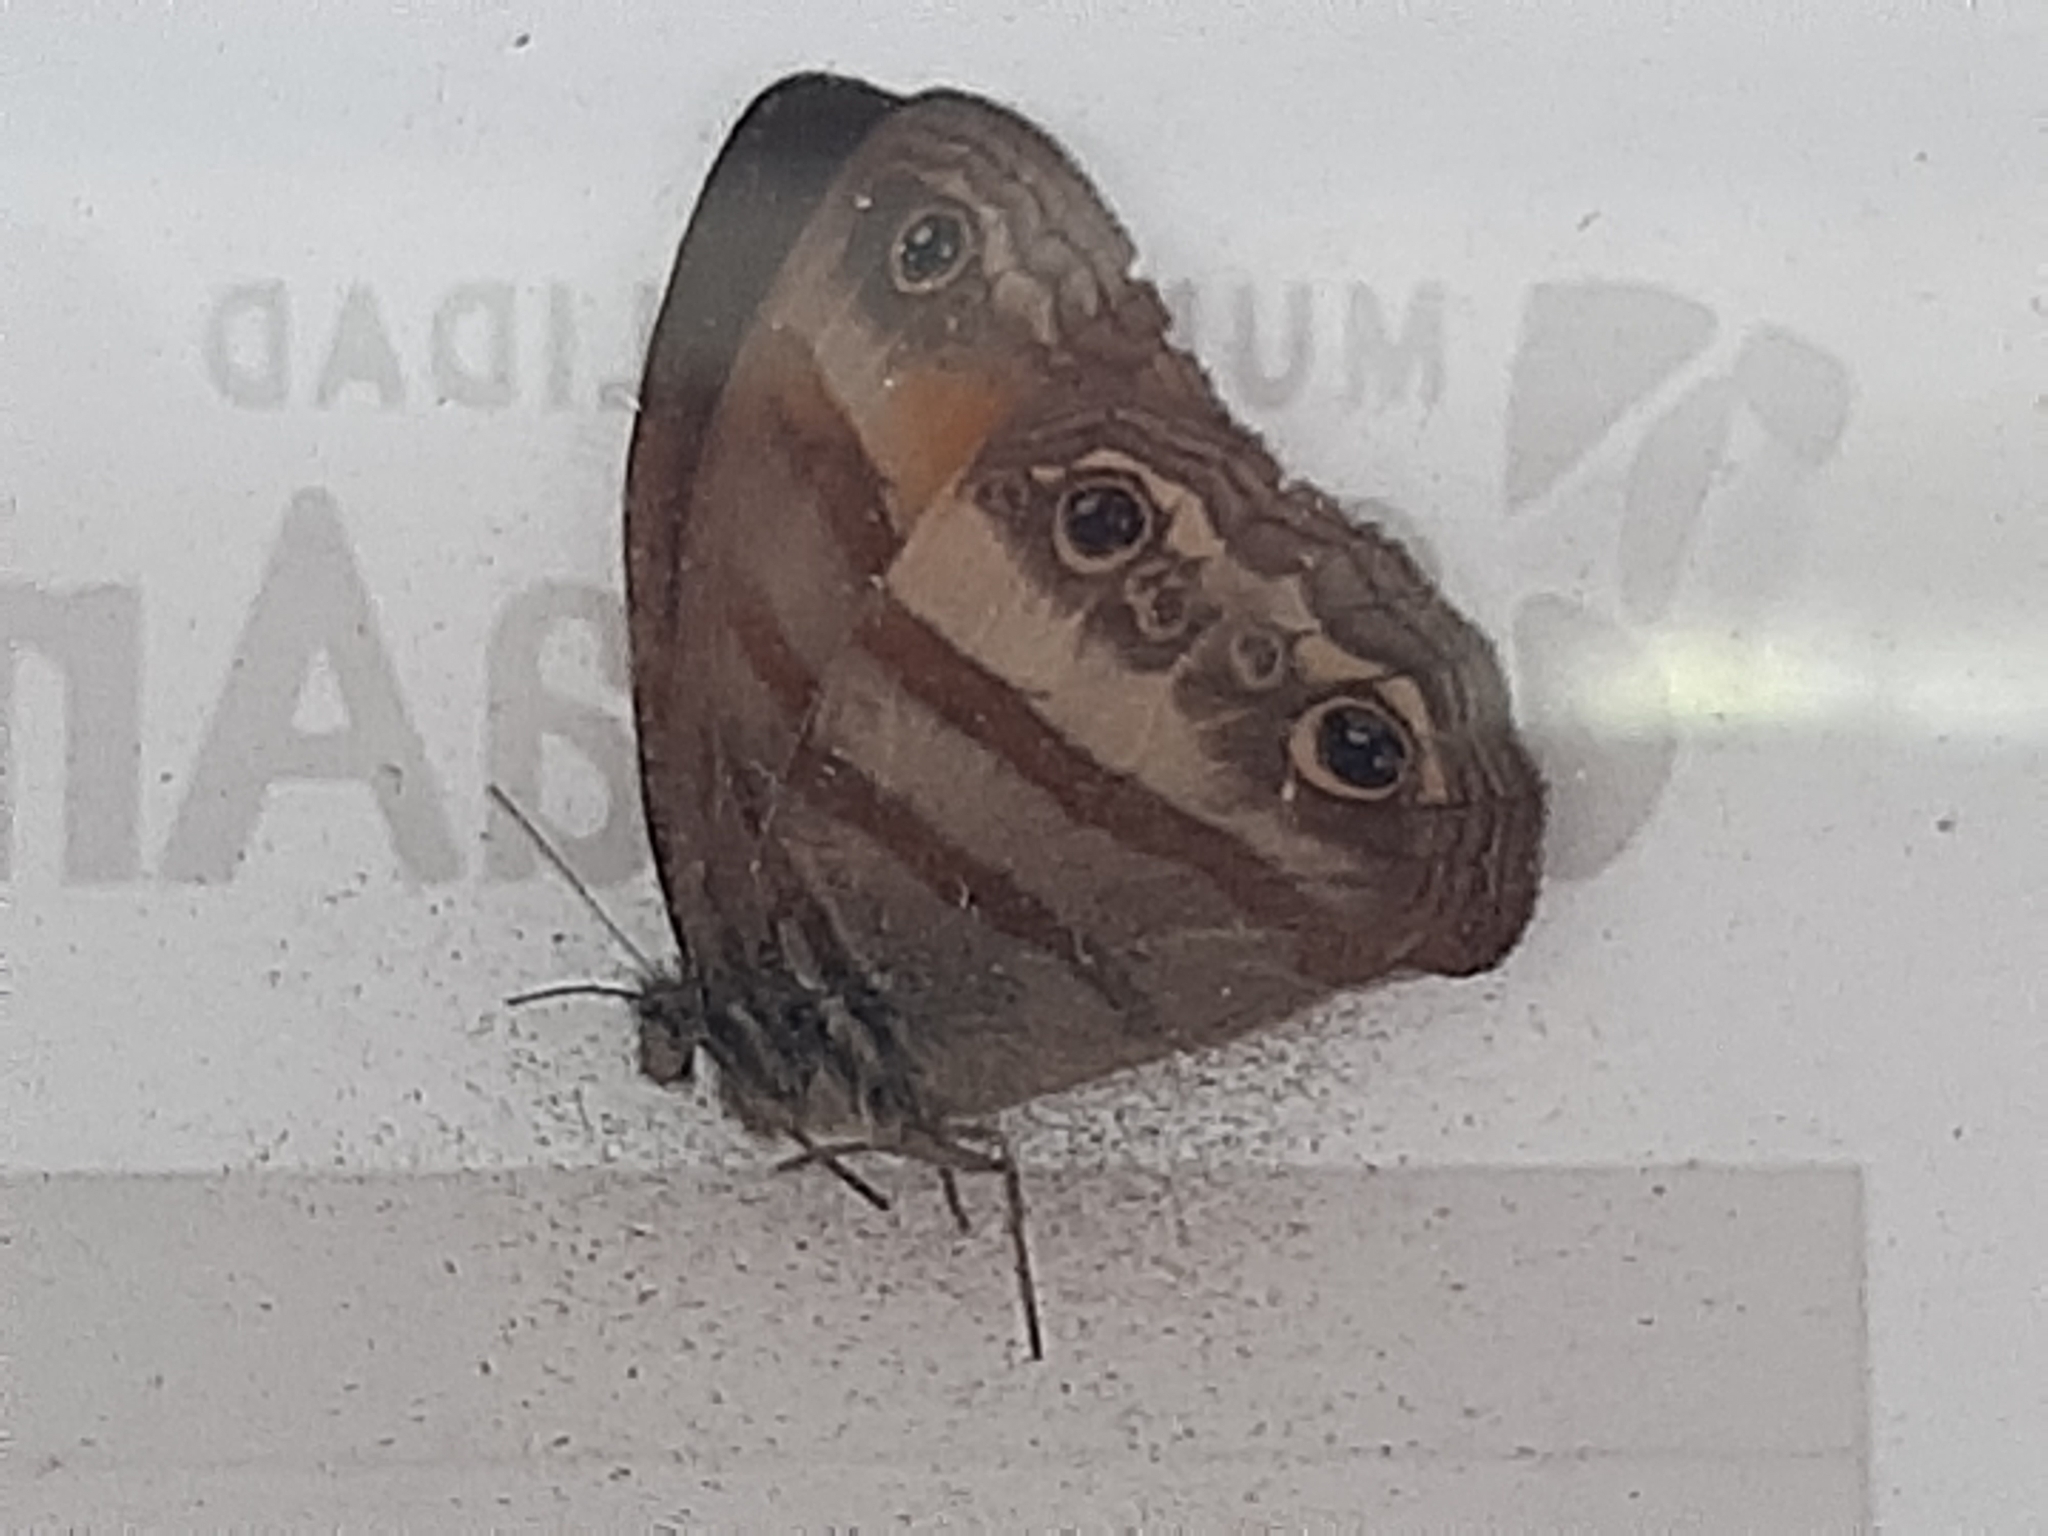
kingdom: Animalia
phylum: Arthropoda
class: Insecta
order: Lepidoptera
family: Nymphalidae
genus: Paryphthimoides
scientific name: Paryphthimoides
